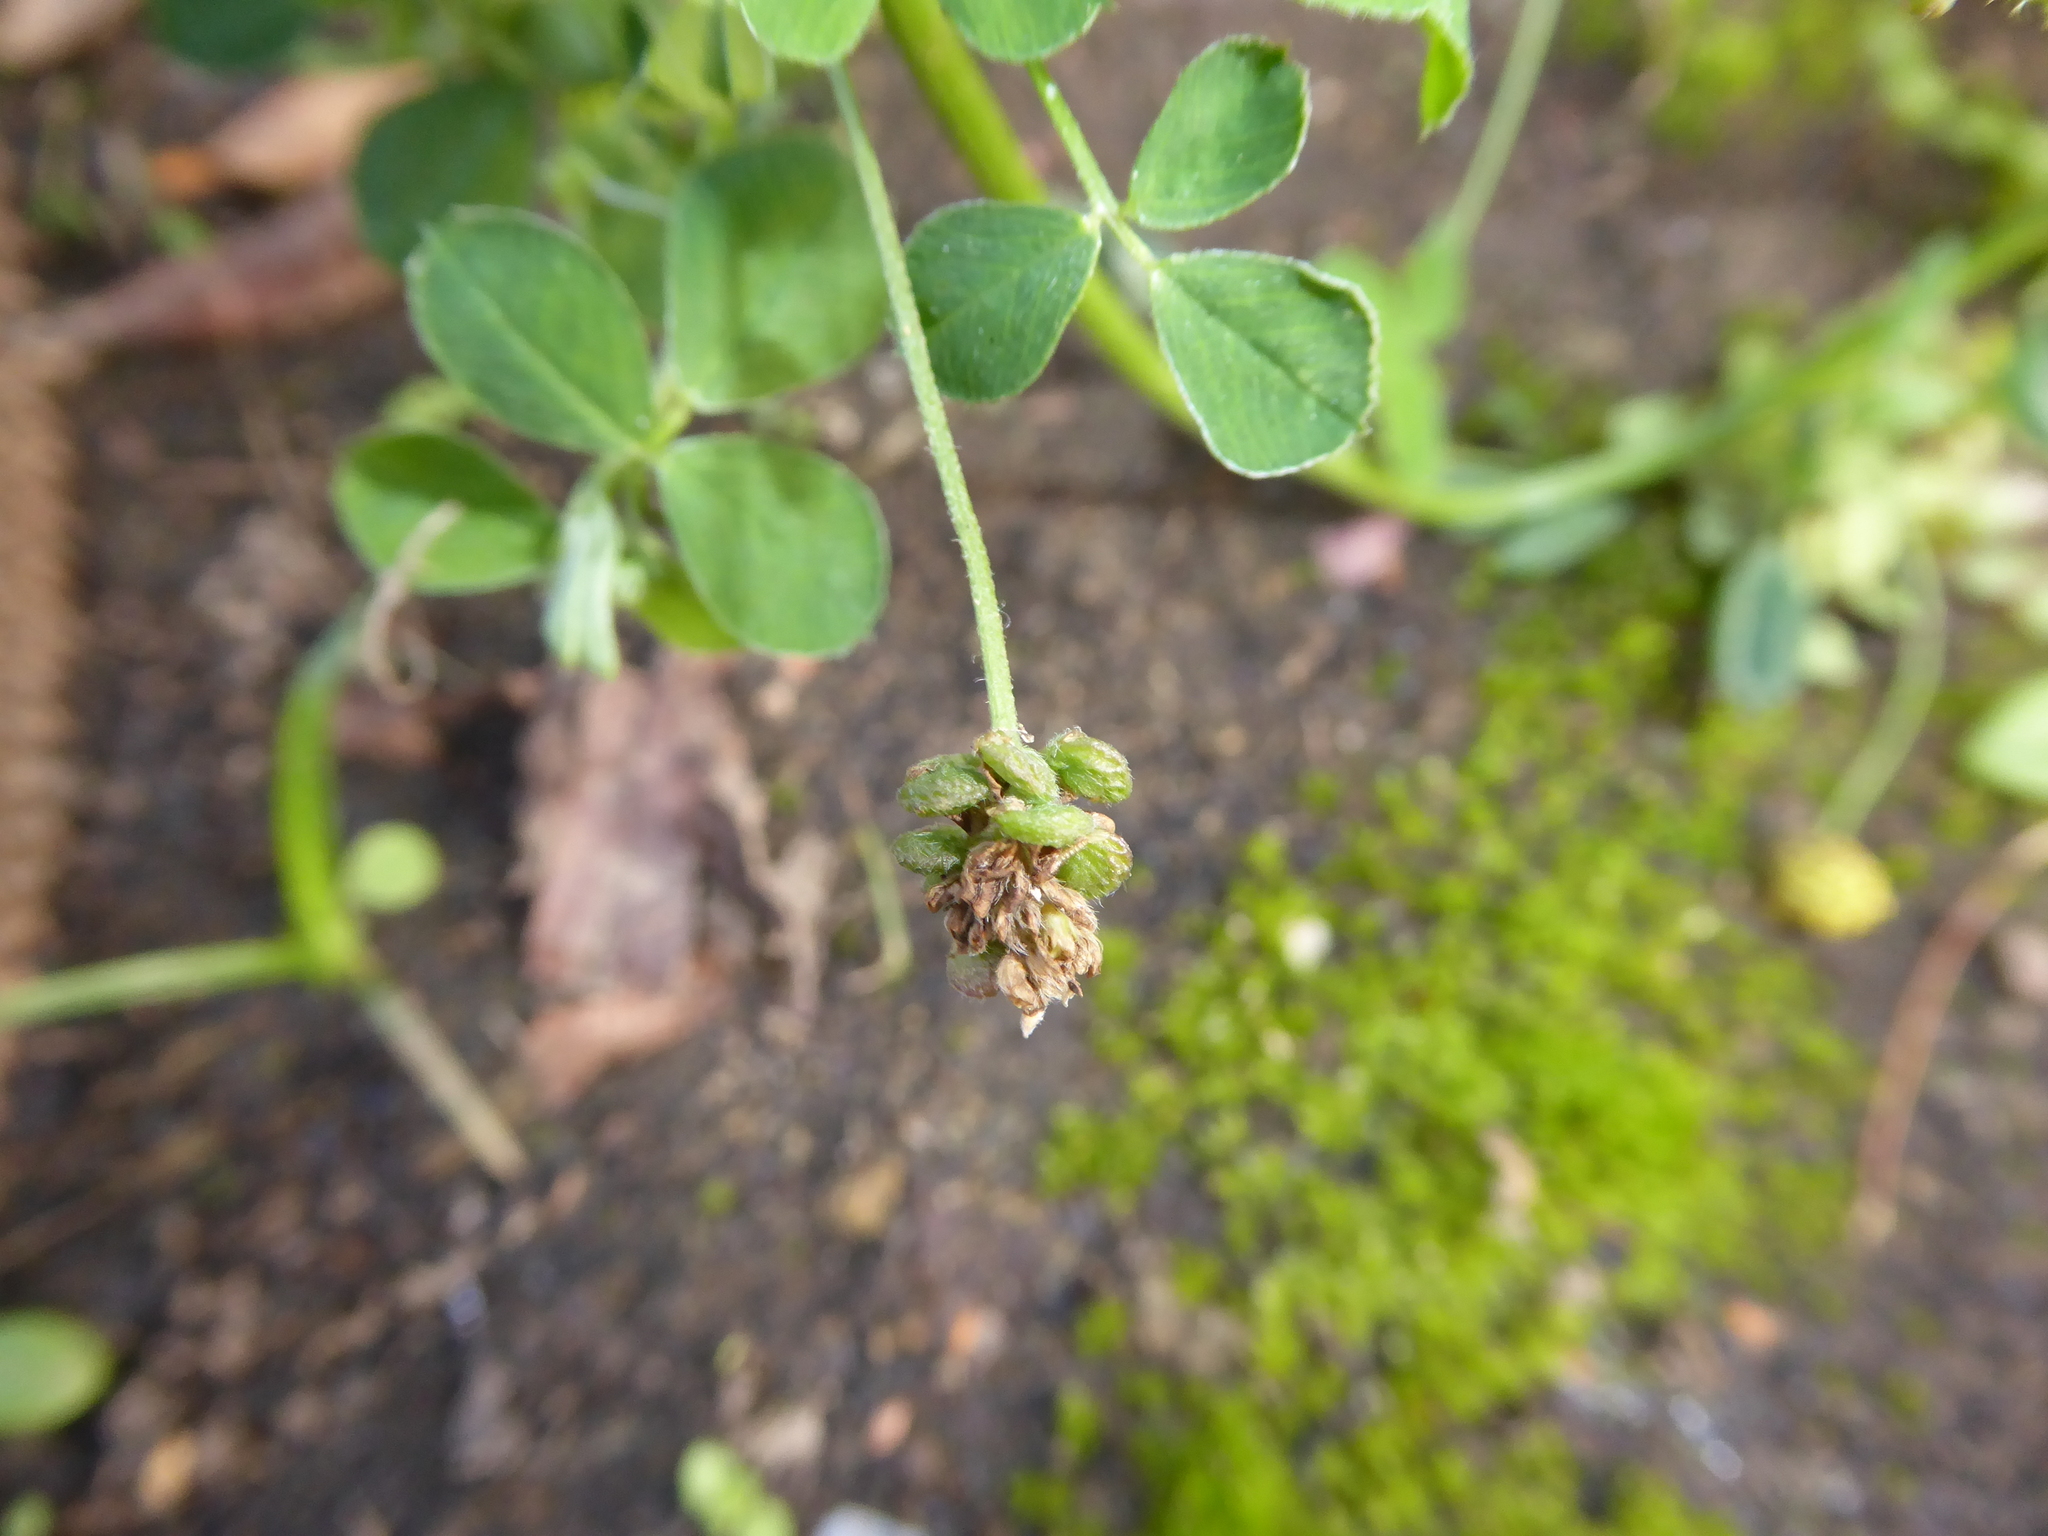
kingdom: Plantae
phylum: Tracheophyta
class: Magnoliopsida
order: Fabales
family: Fabaceae
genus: Medicago
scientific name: Medicago lupulina
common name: Black medick
